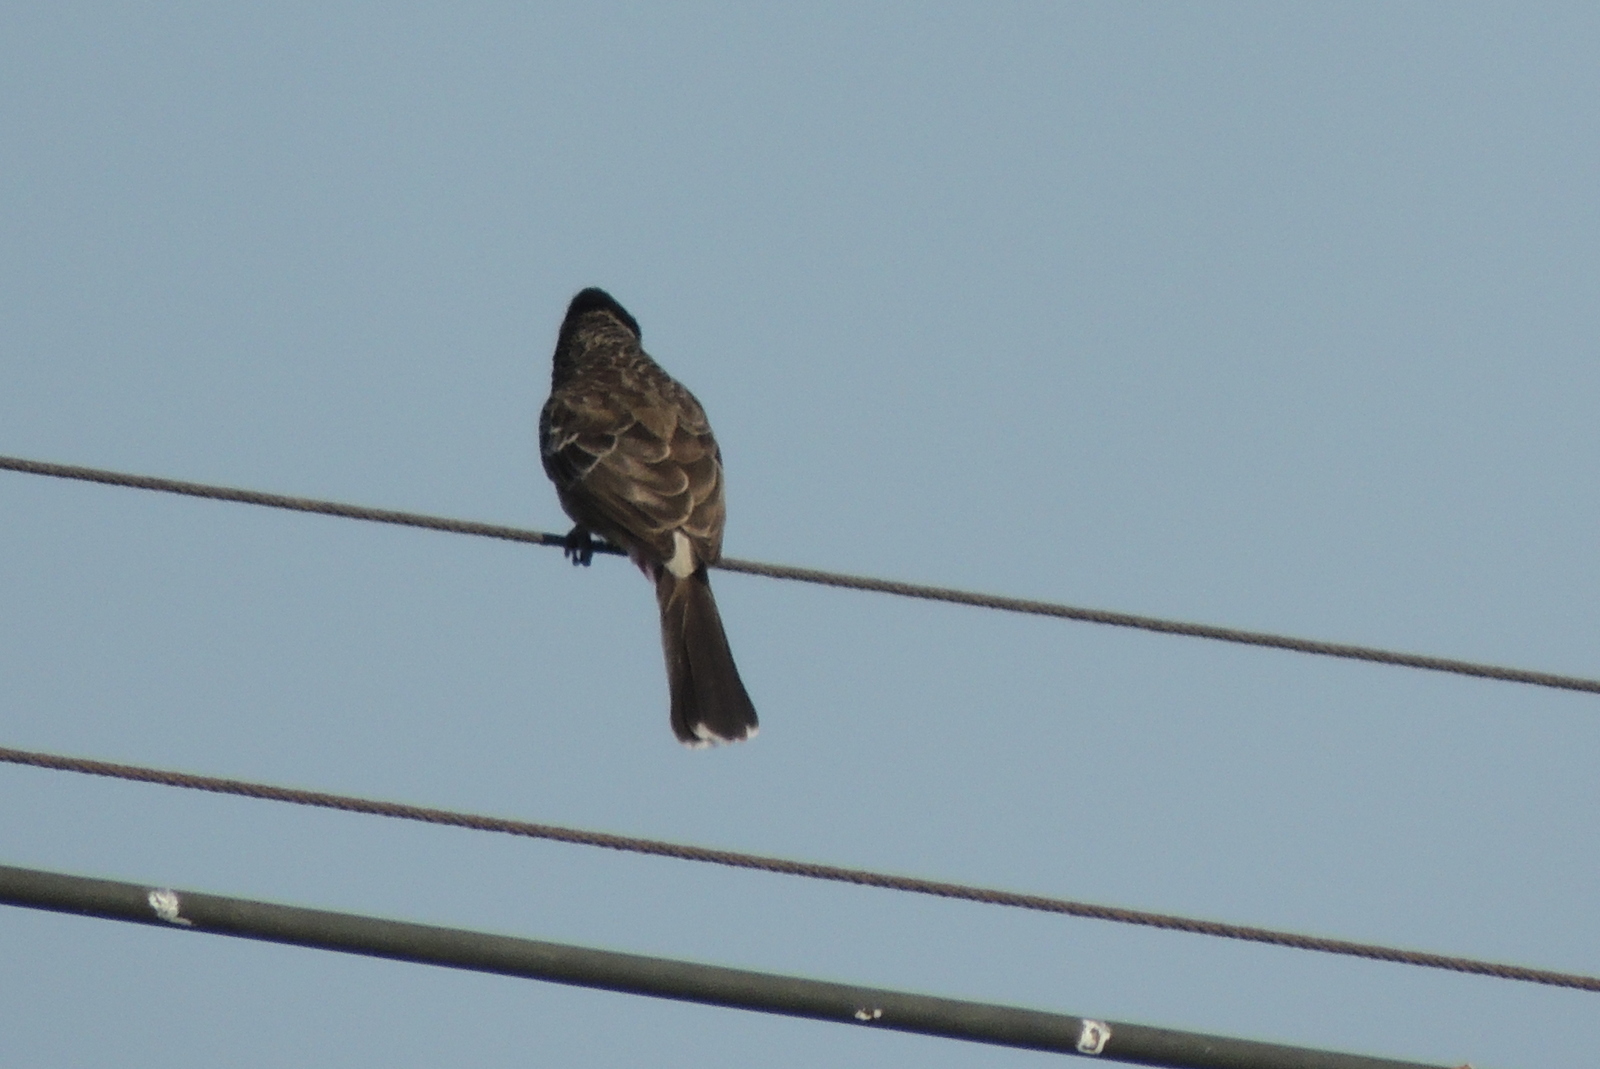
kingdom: Animalia
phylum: Chordata
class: Aves
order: Passeriformes
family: Pycnonotidae
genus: Pycnonotus
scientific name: Pycnonotus cafer
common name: Red-vented bulbul
